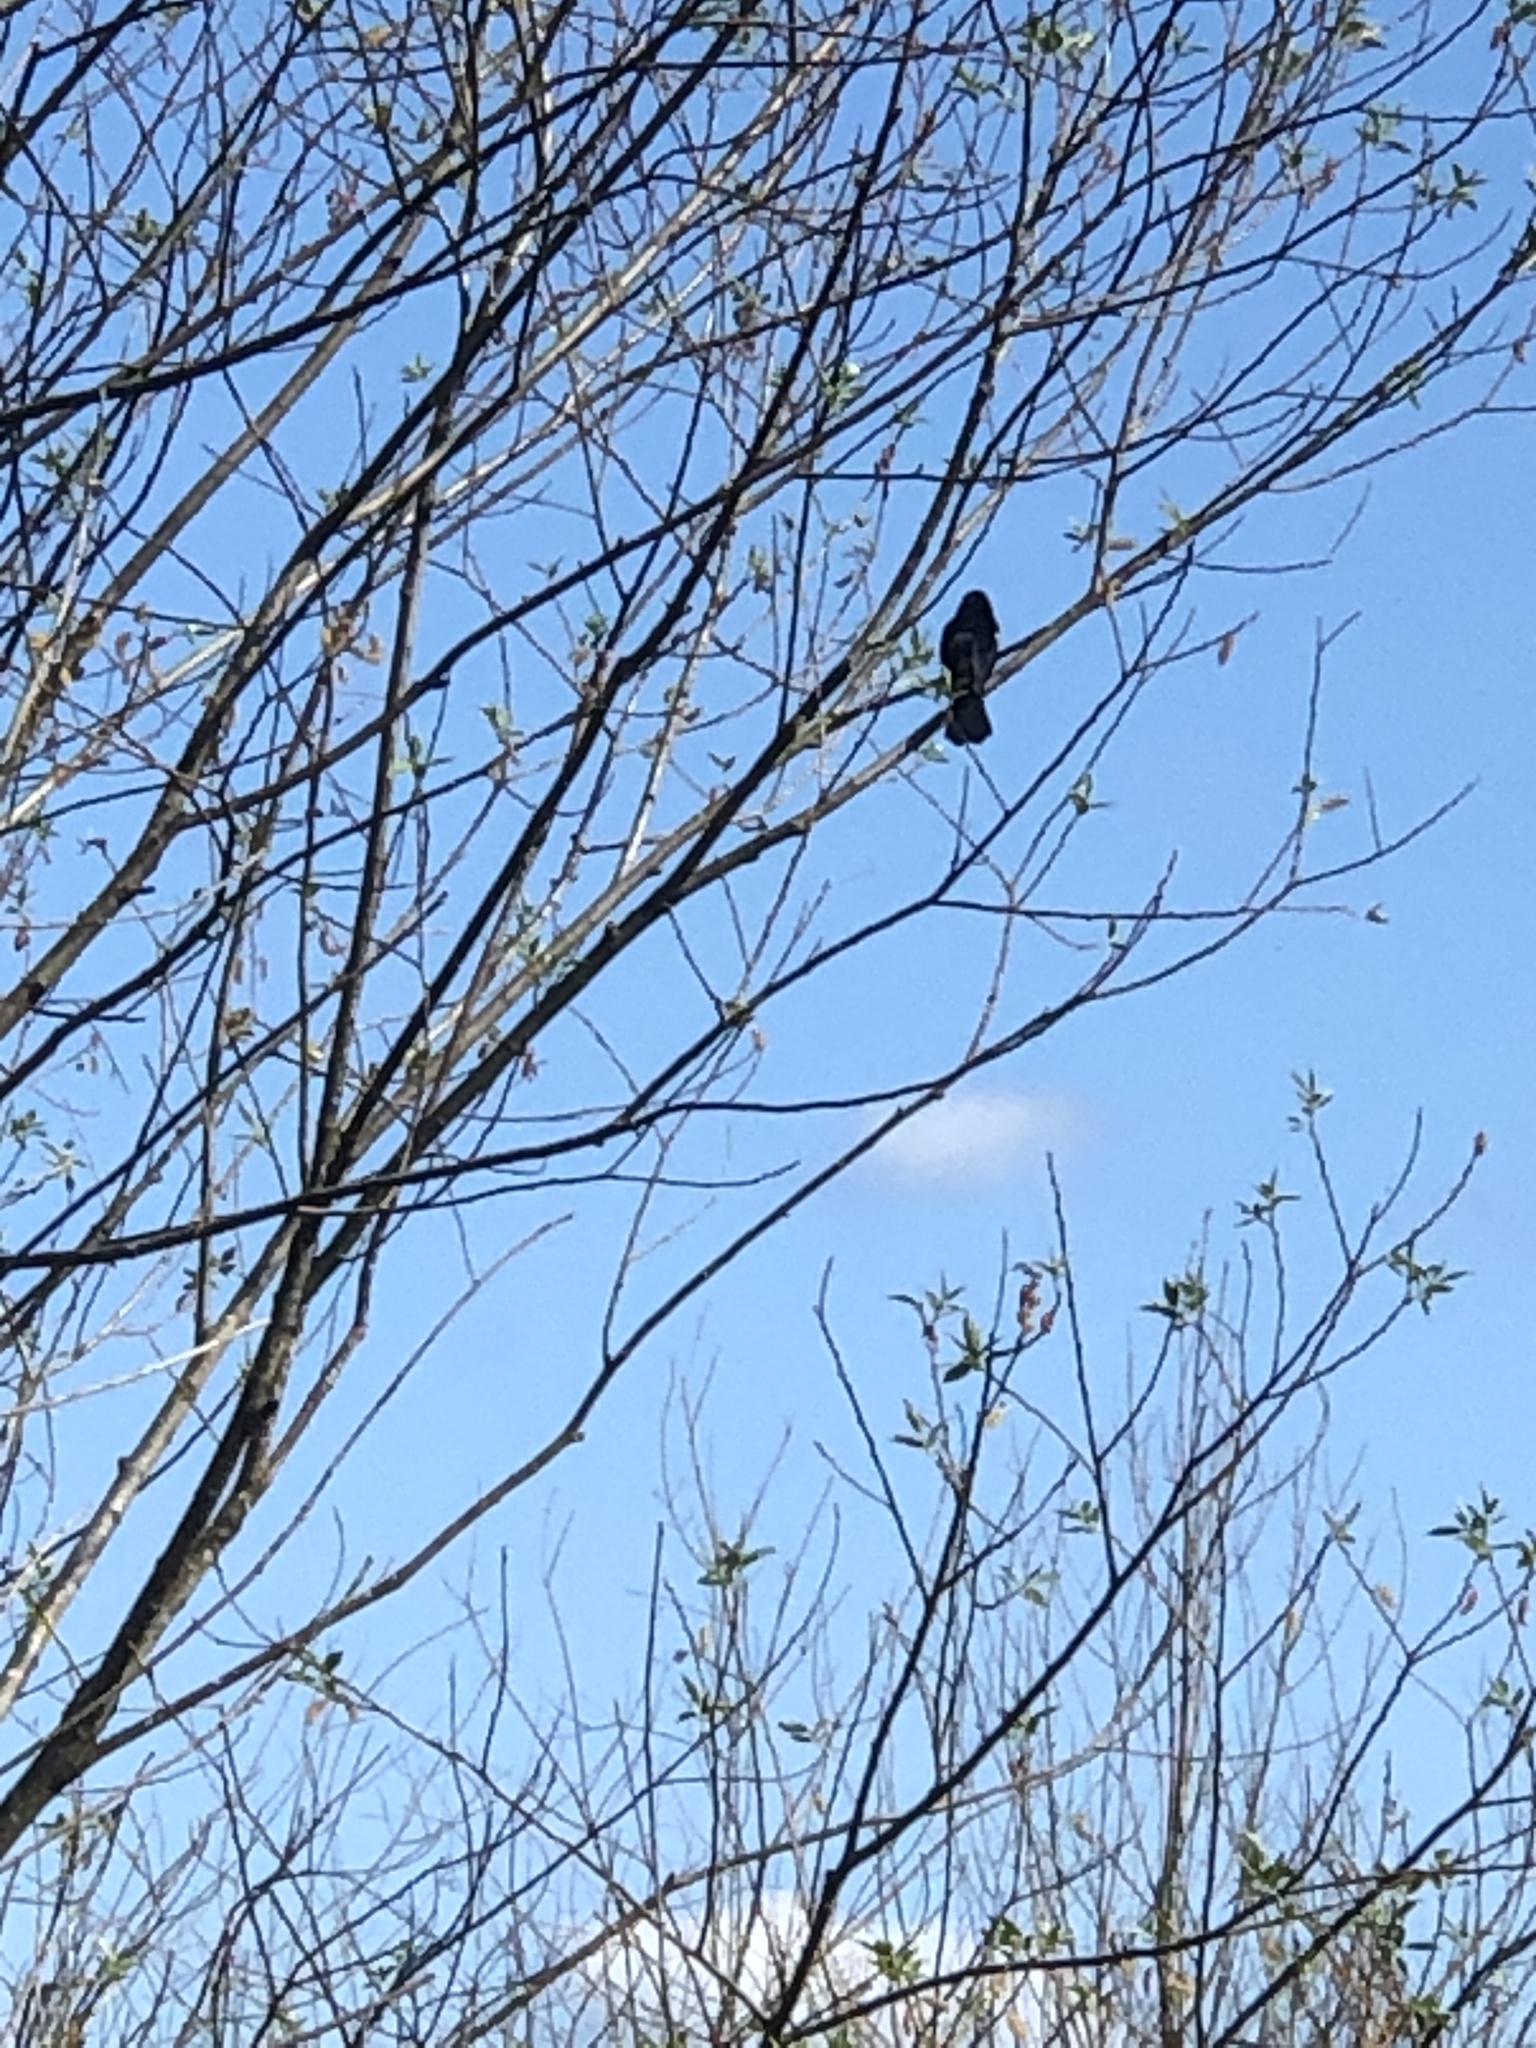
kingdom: Animalia
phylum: Chordata
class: Aves
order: Passeriformes
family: Icteridae
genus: Agelaius
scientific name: Agelaius phoeniceus
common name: Red-winged blackbird
